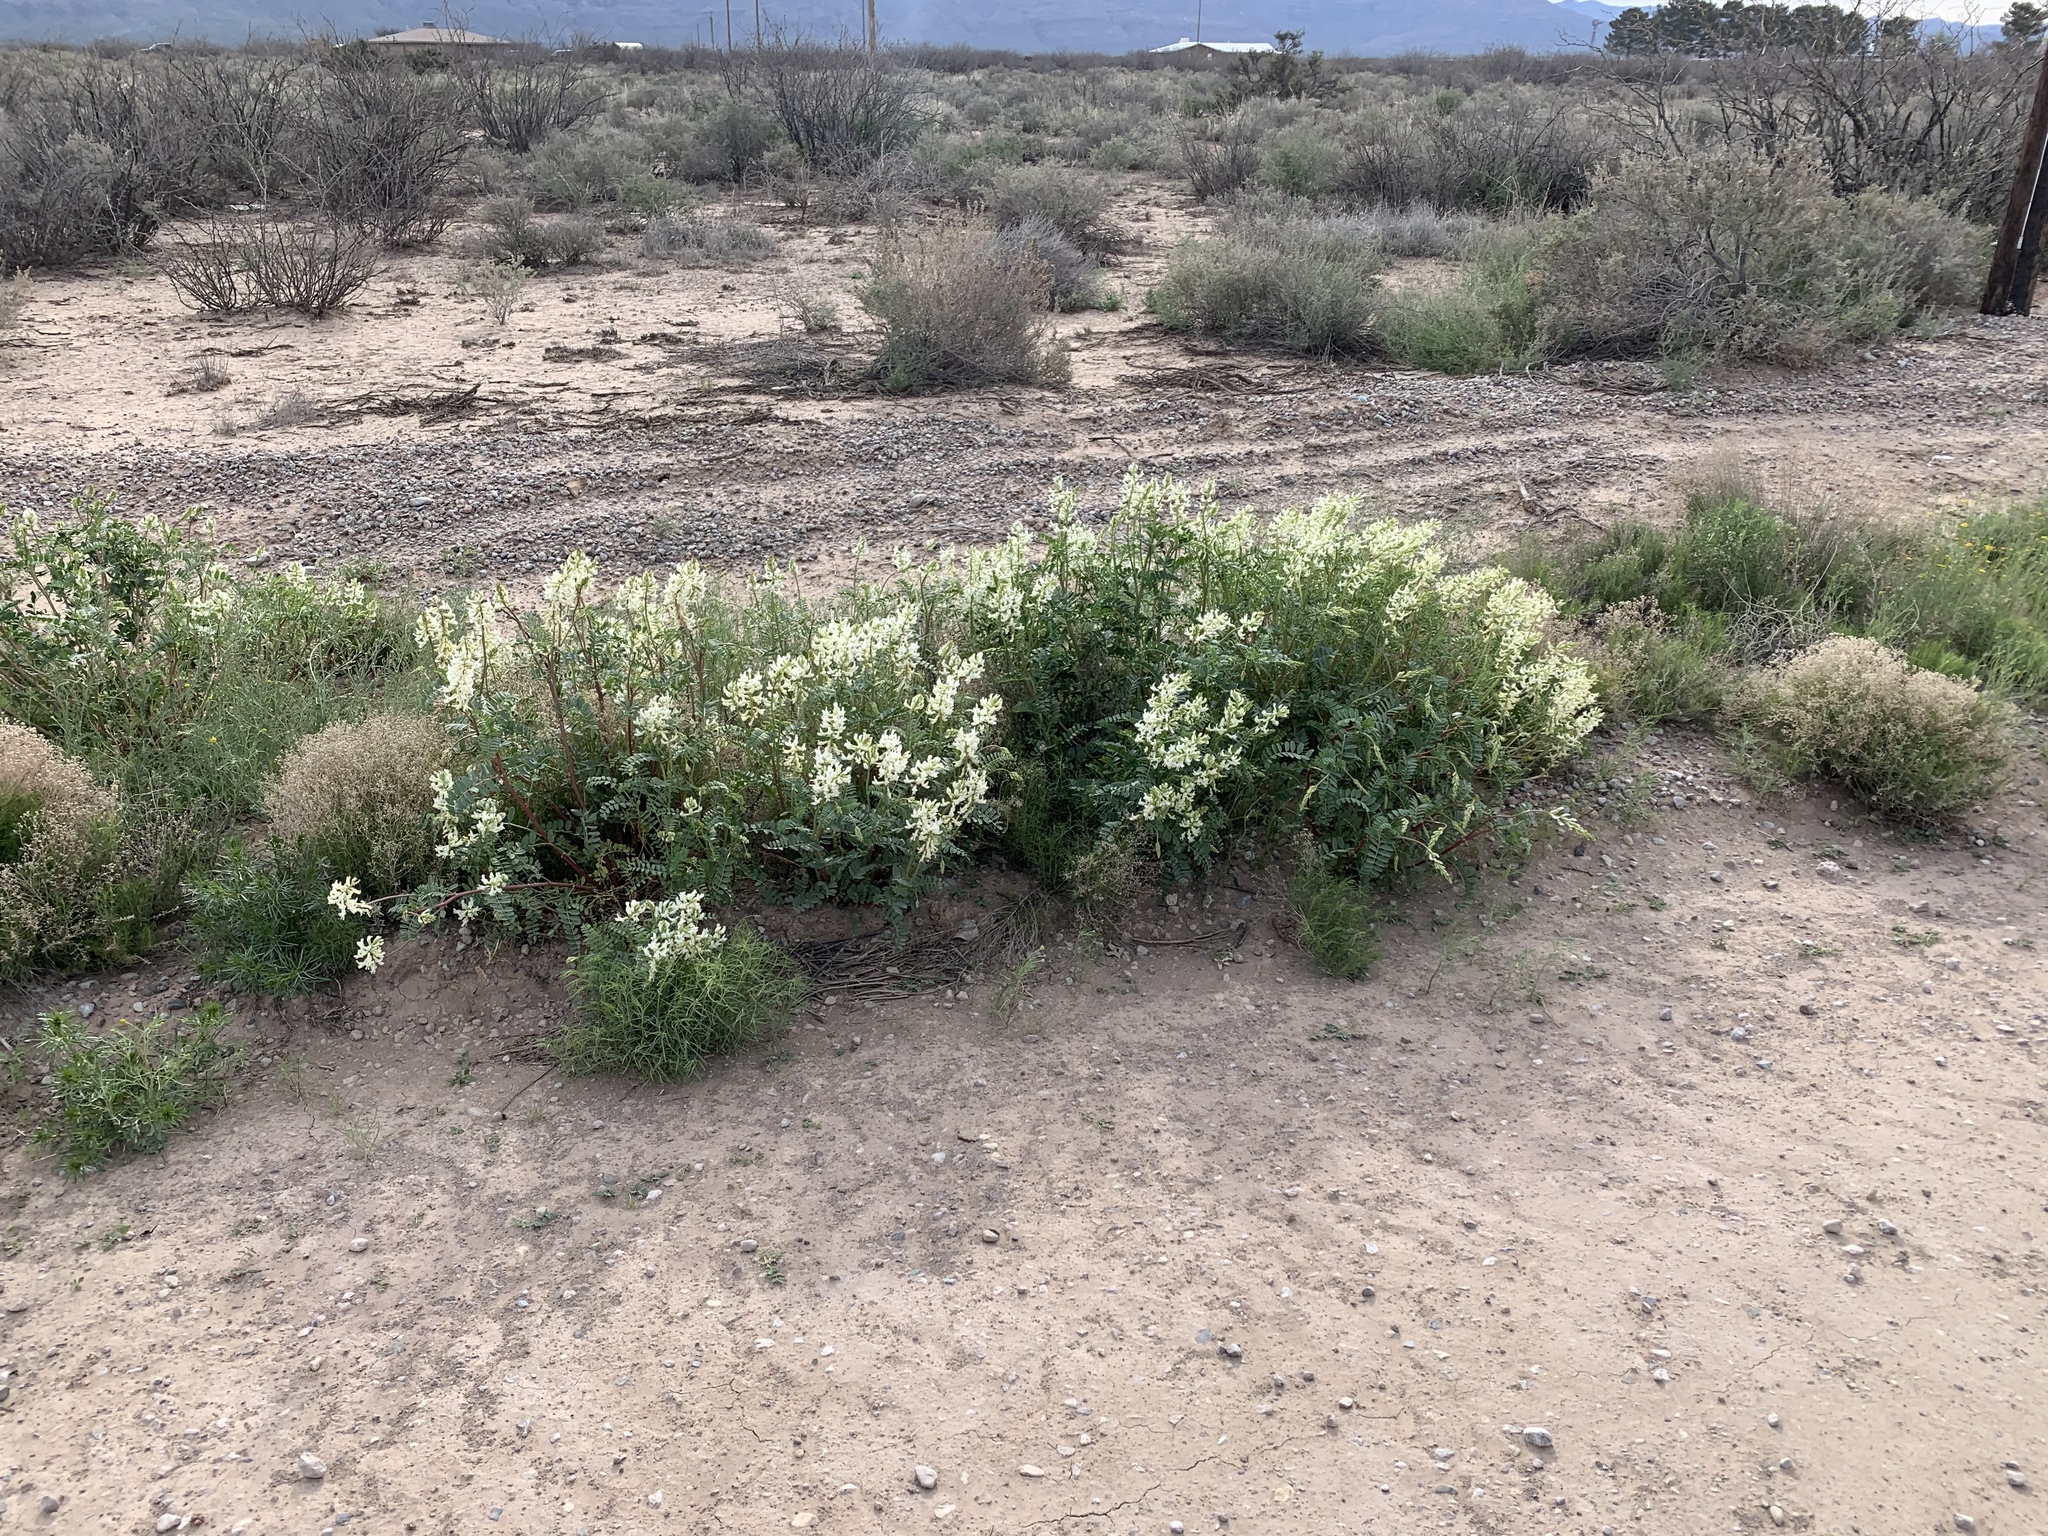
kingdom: Plantae
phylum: Tracheophyta
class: Magnoliopsida
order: Fabales
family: Fabaceae
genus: Astragalus
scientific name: Astragalus praelongus
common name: Stinking milk-vetch
